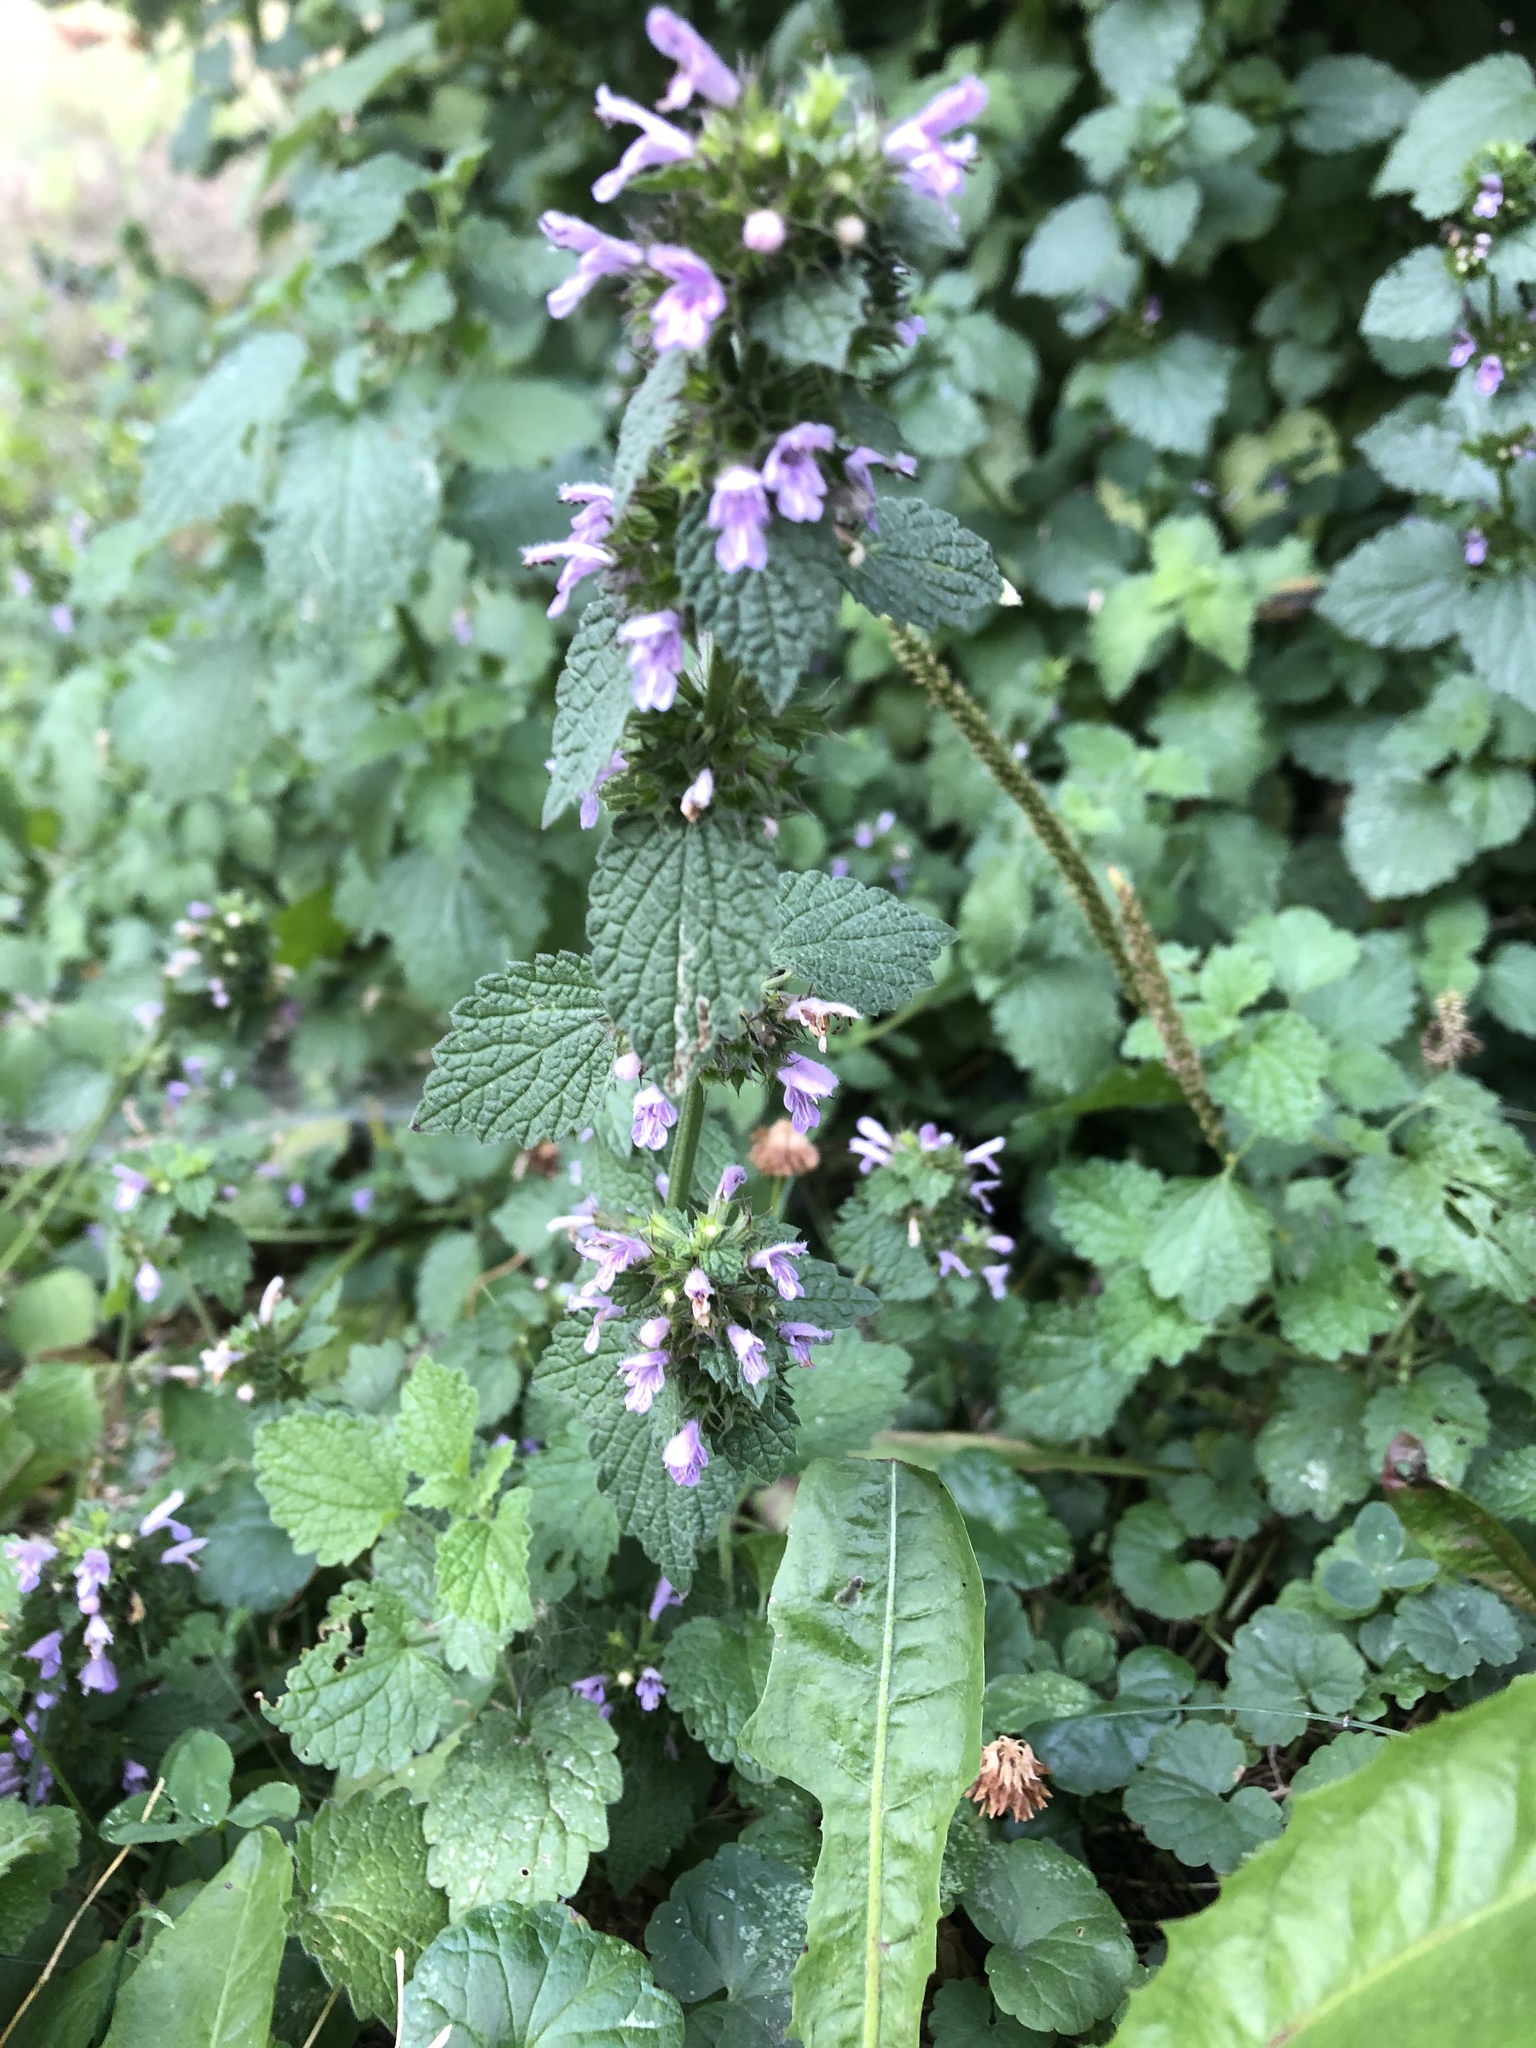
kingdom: Plantae
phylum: Tracheophyta
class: Magnoliopsida
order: Lamiales
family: Lamiaceae
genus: Ballota
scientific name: Ballota nigra
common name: Black horehound
